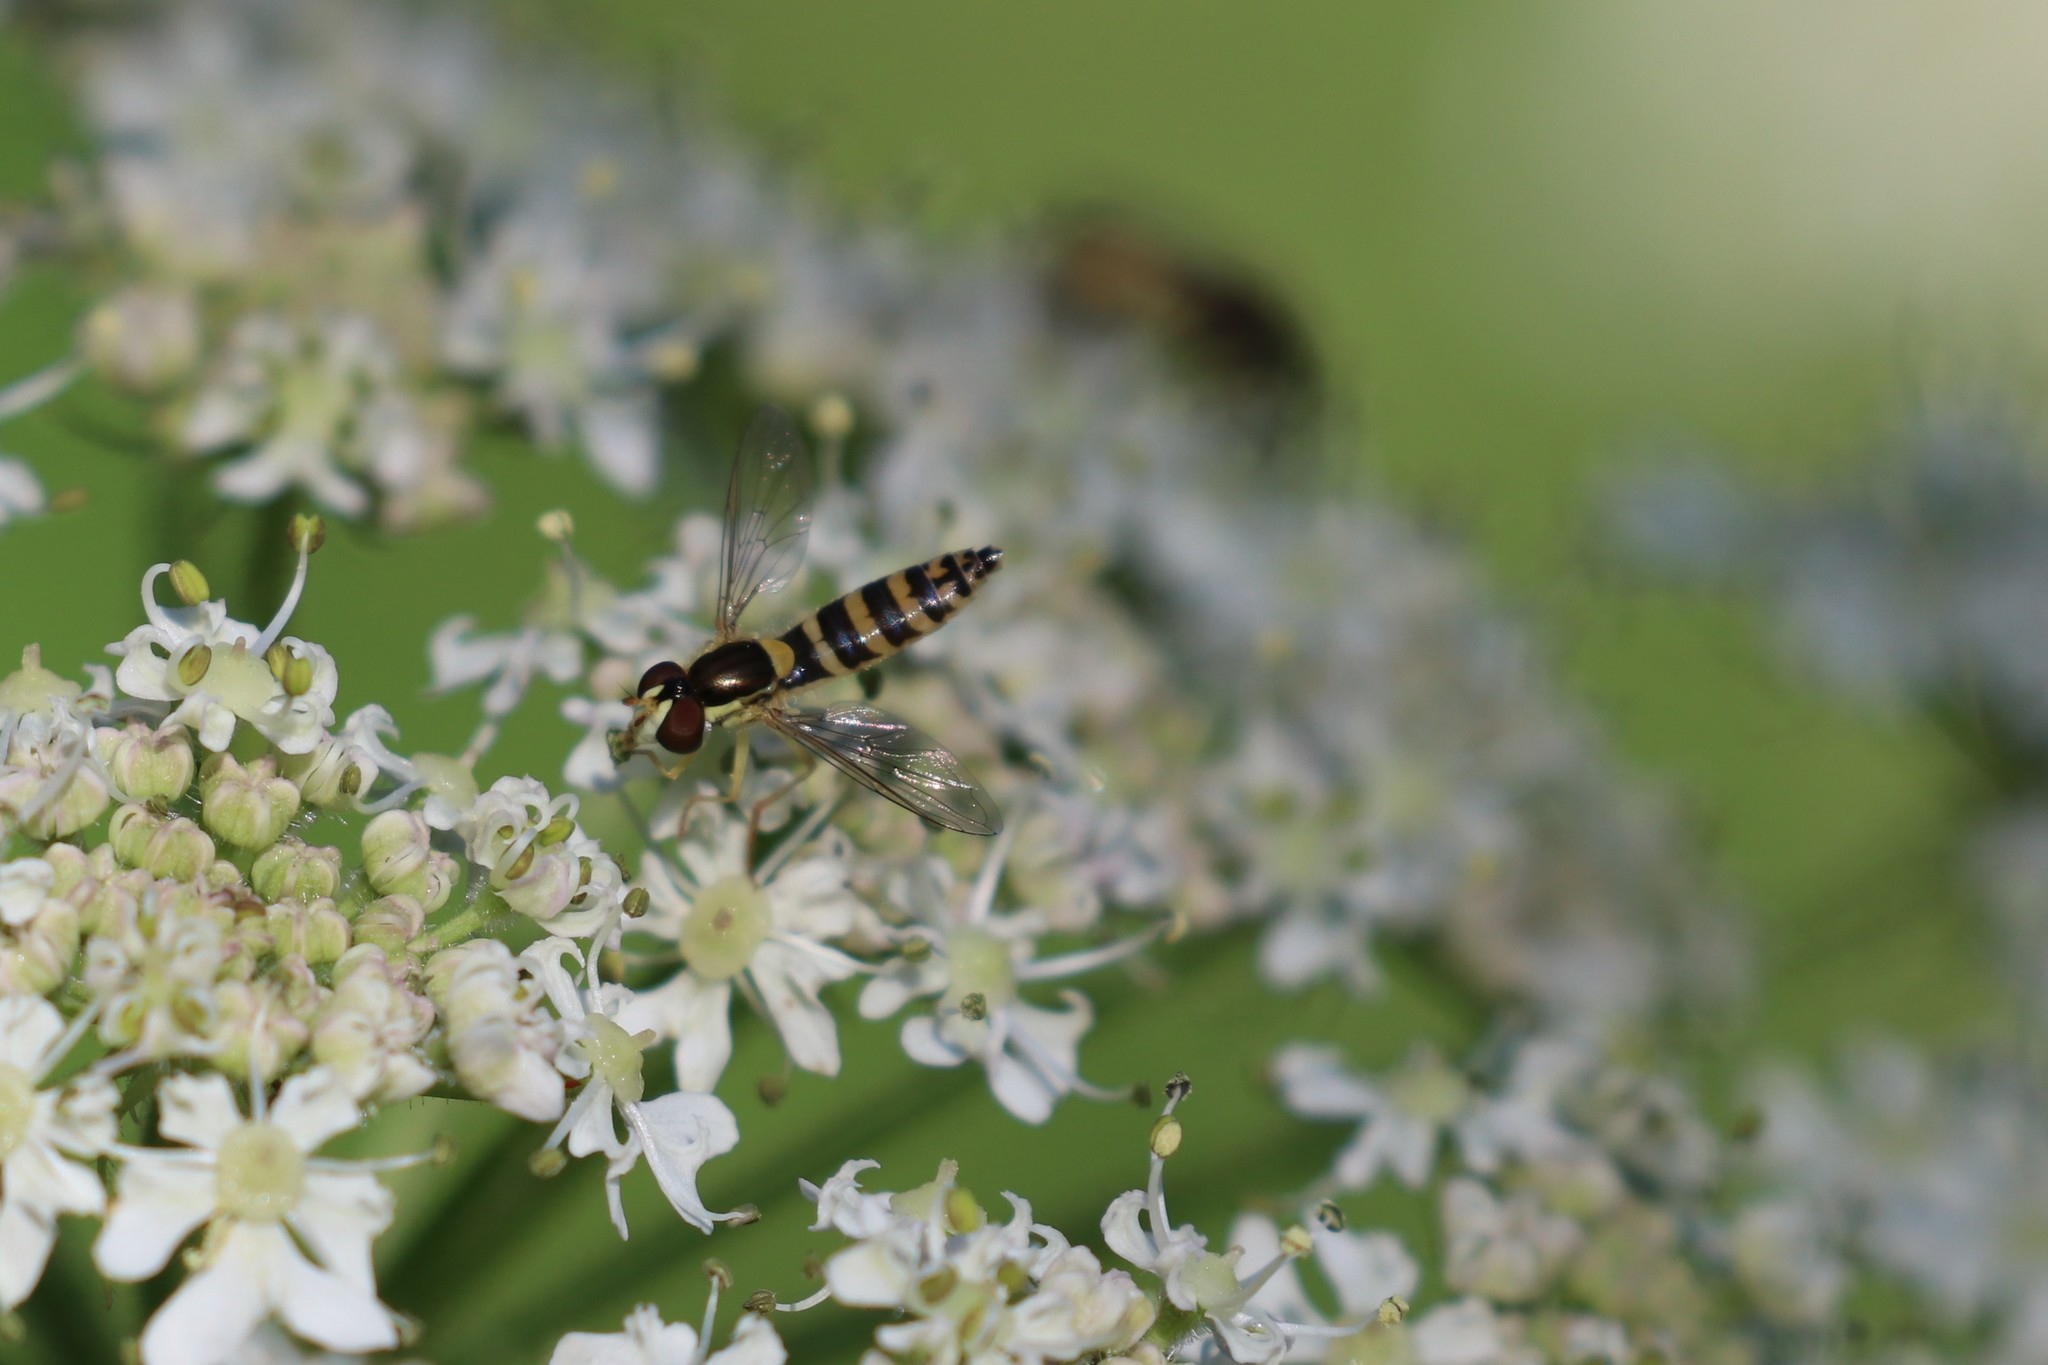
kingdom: Animalia
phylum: Arthropoda
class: Insecta
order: Diptera
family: Syrphidae
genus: Sphaerophoria
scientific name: Sphaerophoria scripta
